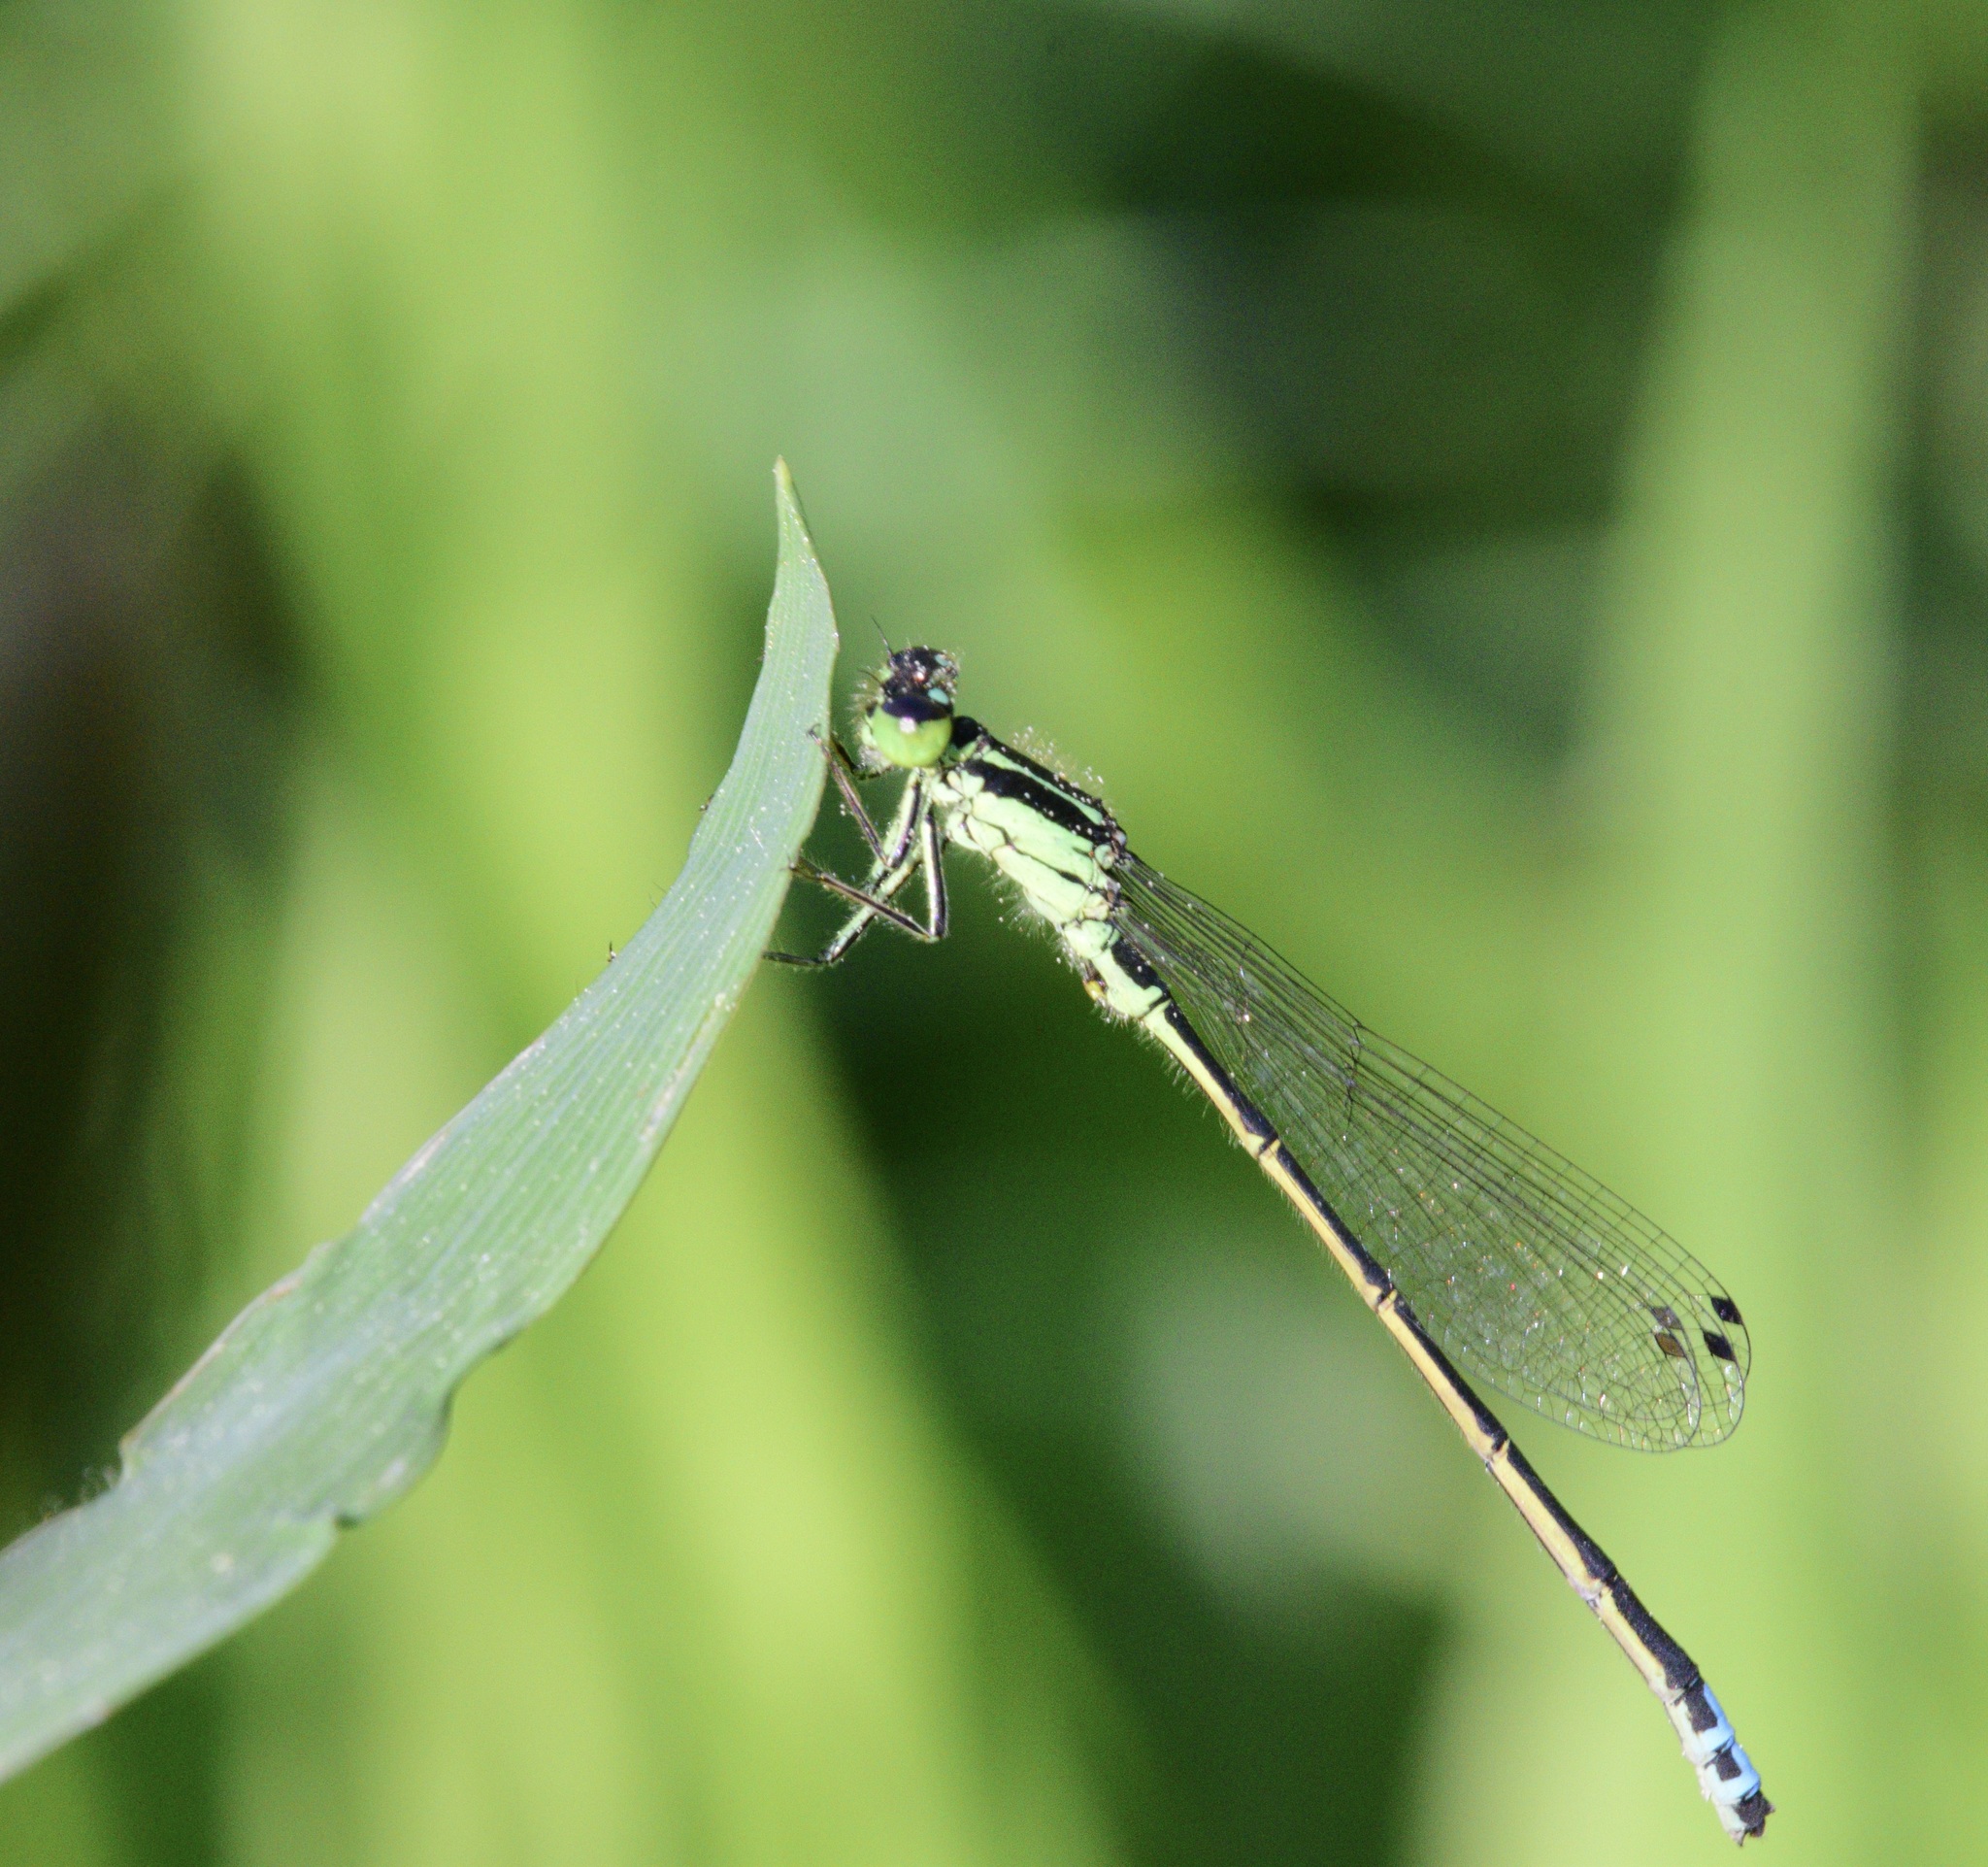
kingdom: Animalia
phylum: Arthropoda
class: Insecta
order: Odonata
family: Coenagrionidae
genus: Ischnura
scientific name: Ischnura verticalis
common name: Eastern forktail
